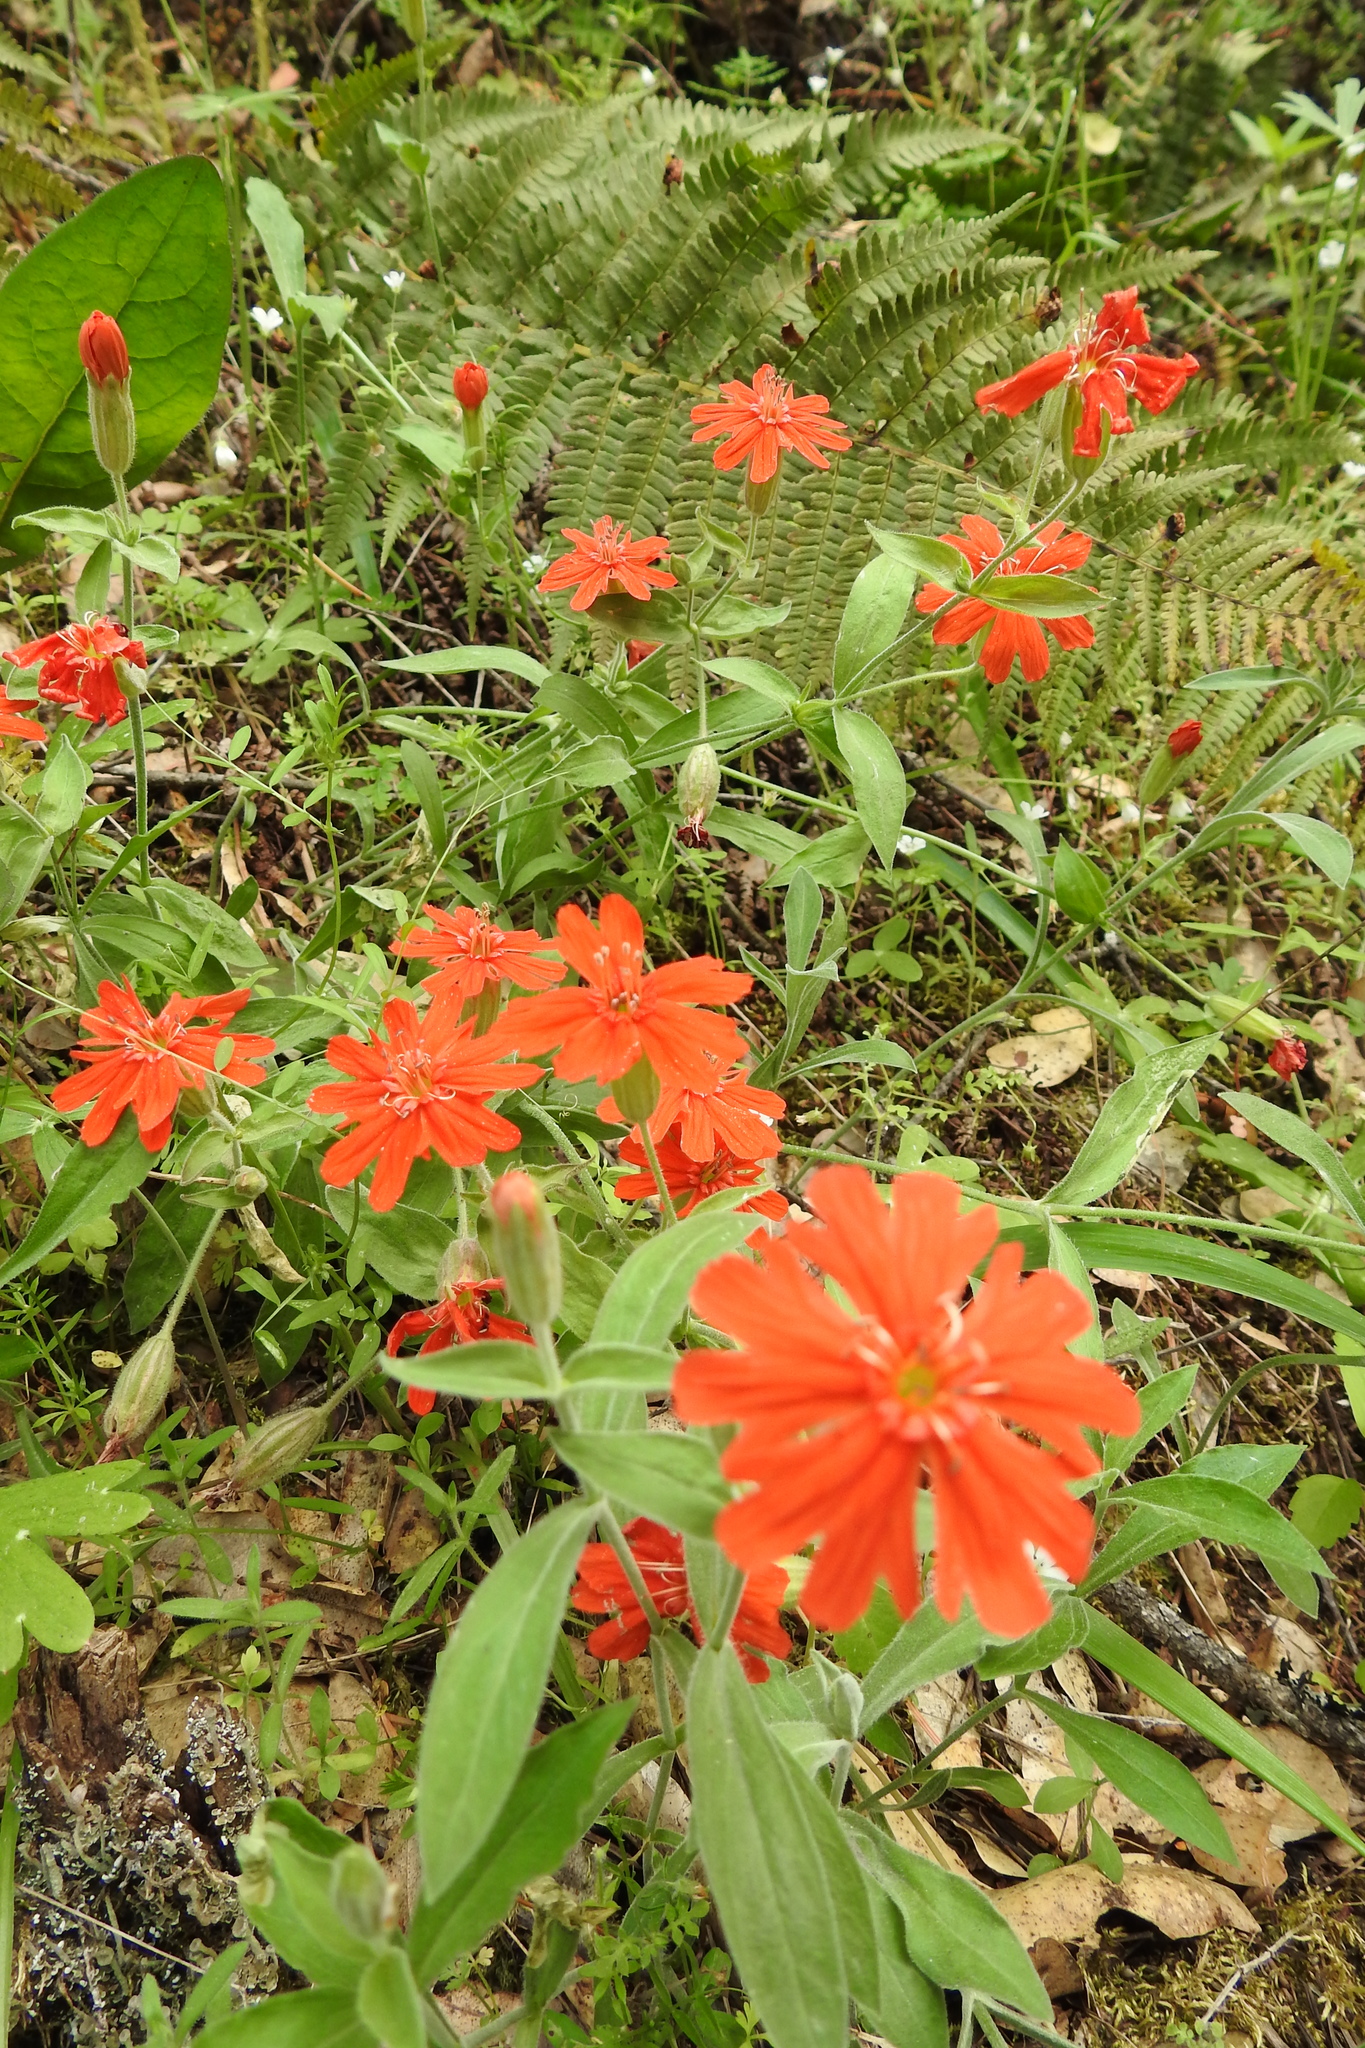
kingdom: Plantae
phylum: Tracheophyta
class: Magnoliopsida
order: Caryophyllales
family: Caryophyllaceae
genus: Silene
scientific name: Silene laciniata
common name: Indian-pink
